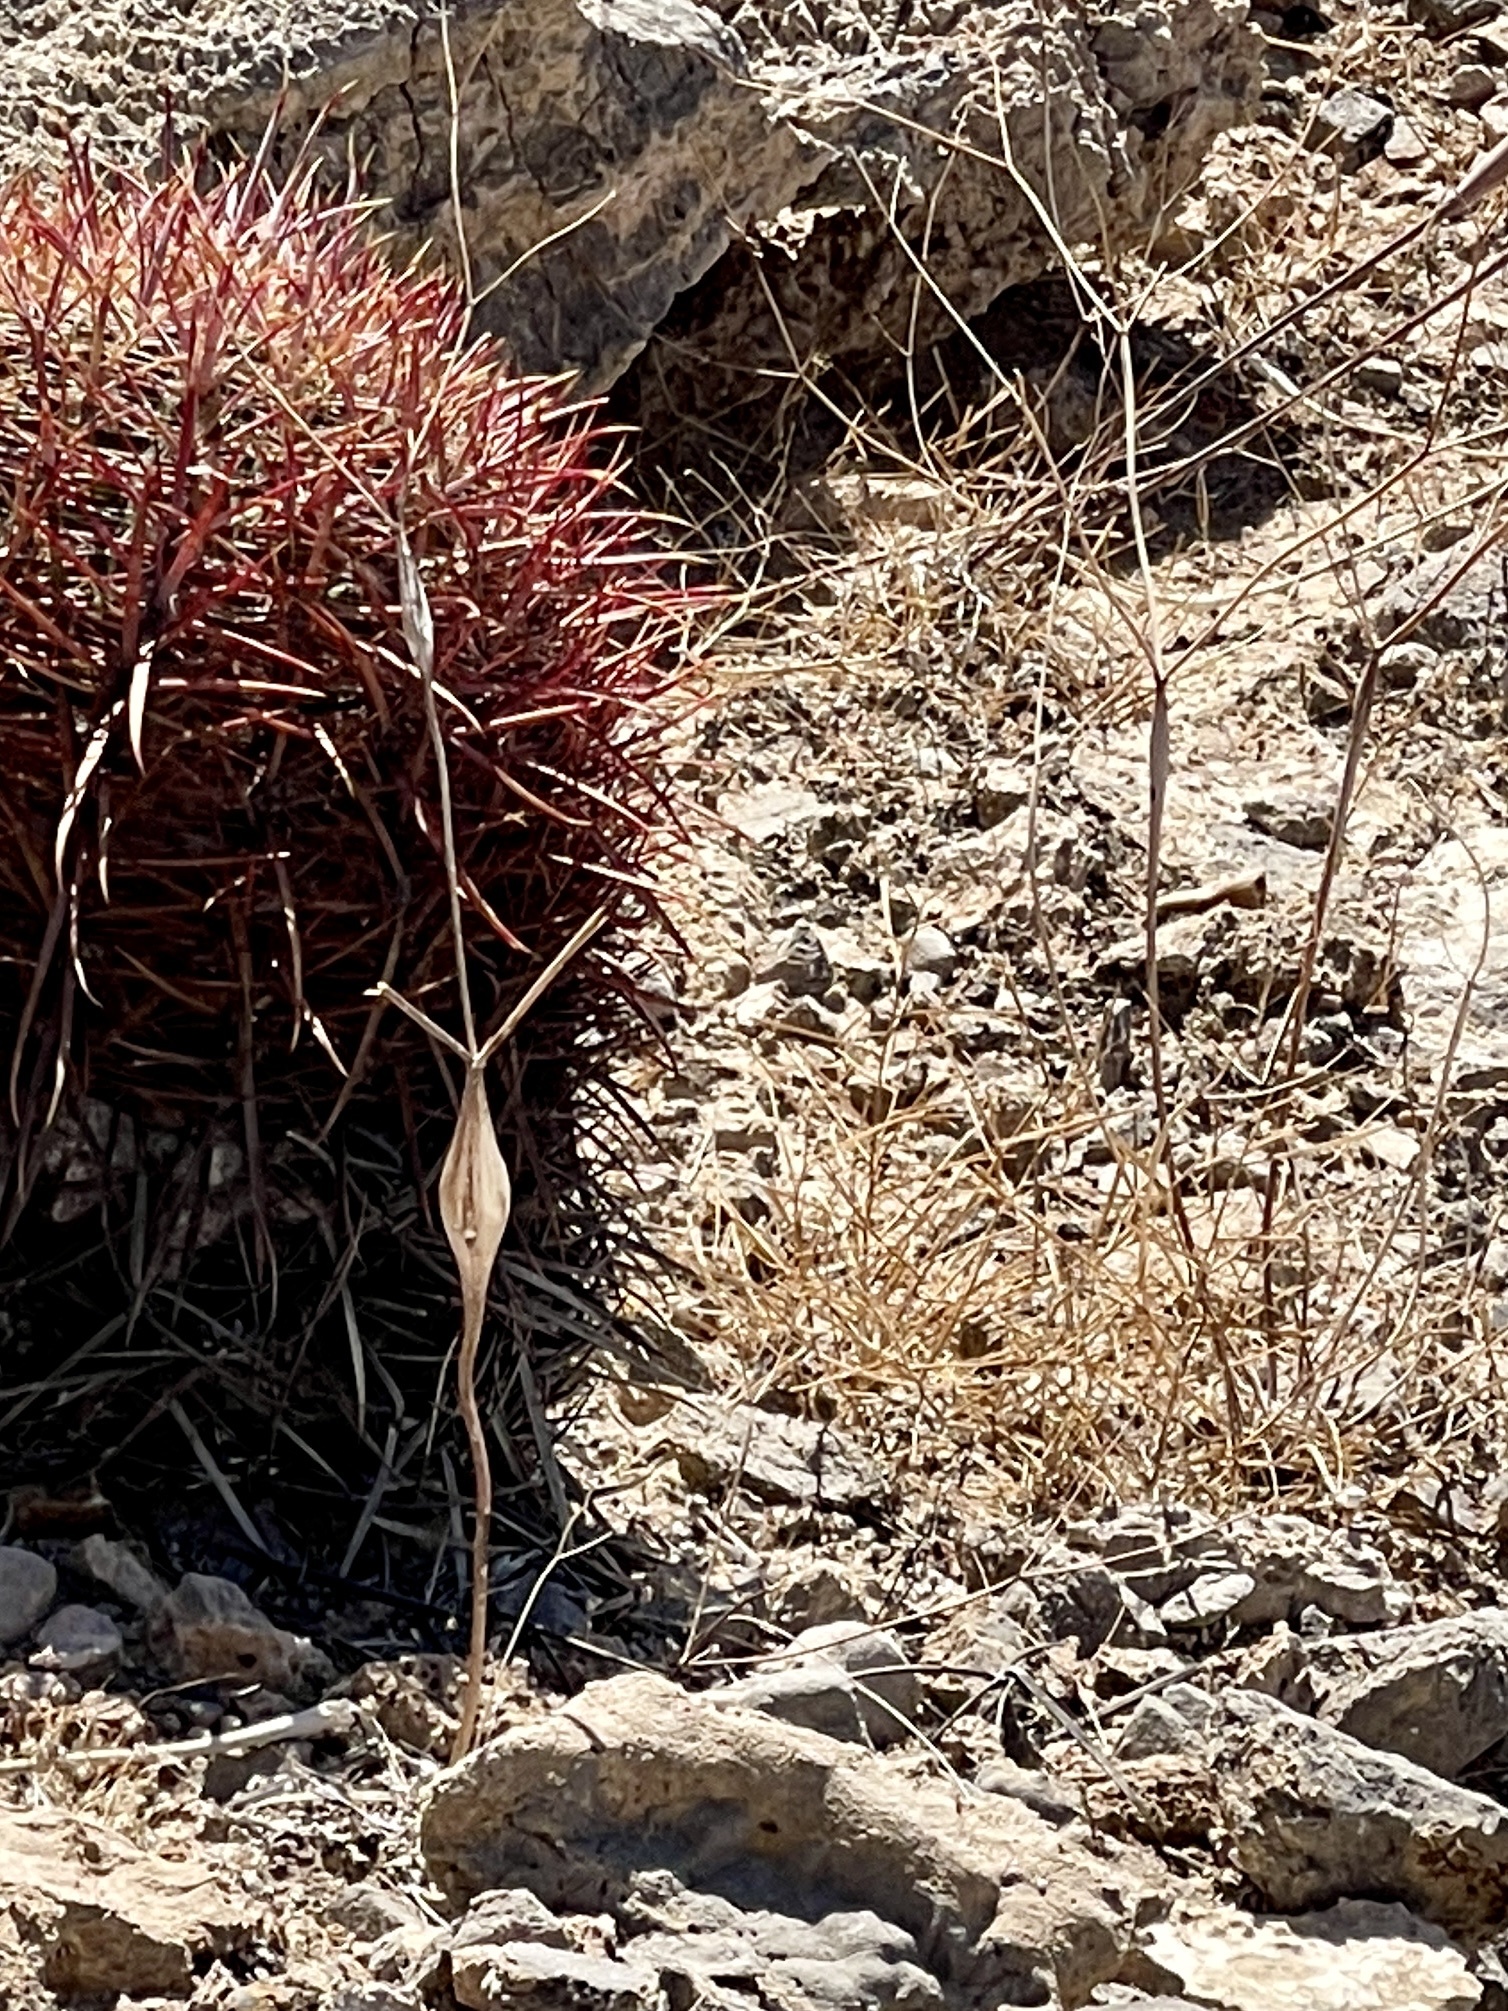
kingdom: Plantae
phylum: Tracheophyta
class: Magnoliopsida
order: Caryophyllales
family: Polygonaceae
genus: Eriogonum
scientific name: Eriogonum inflatum
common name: Desert trumpet
